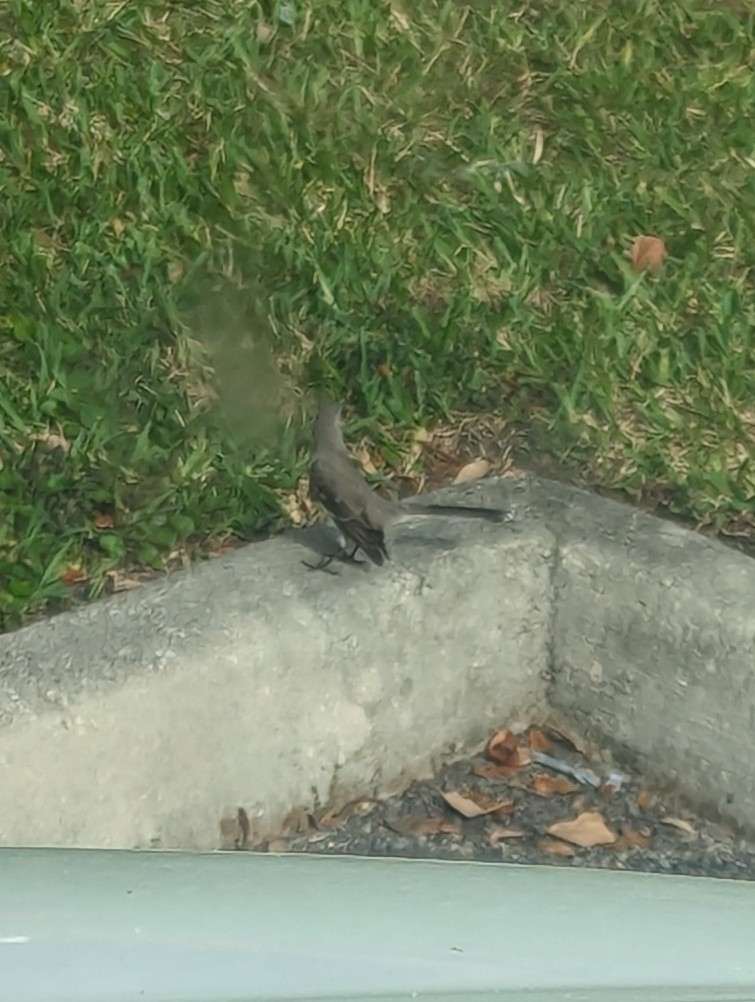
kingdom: Animalia
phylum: Chordata
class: Aves
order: Passeriformes
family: Mimidae
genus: Mimus
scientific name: Mimus polyglottos
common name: Northern mockingbird
